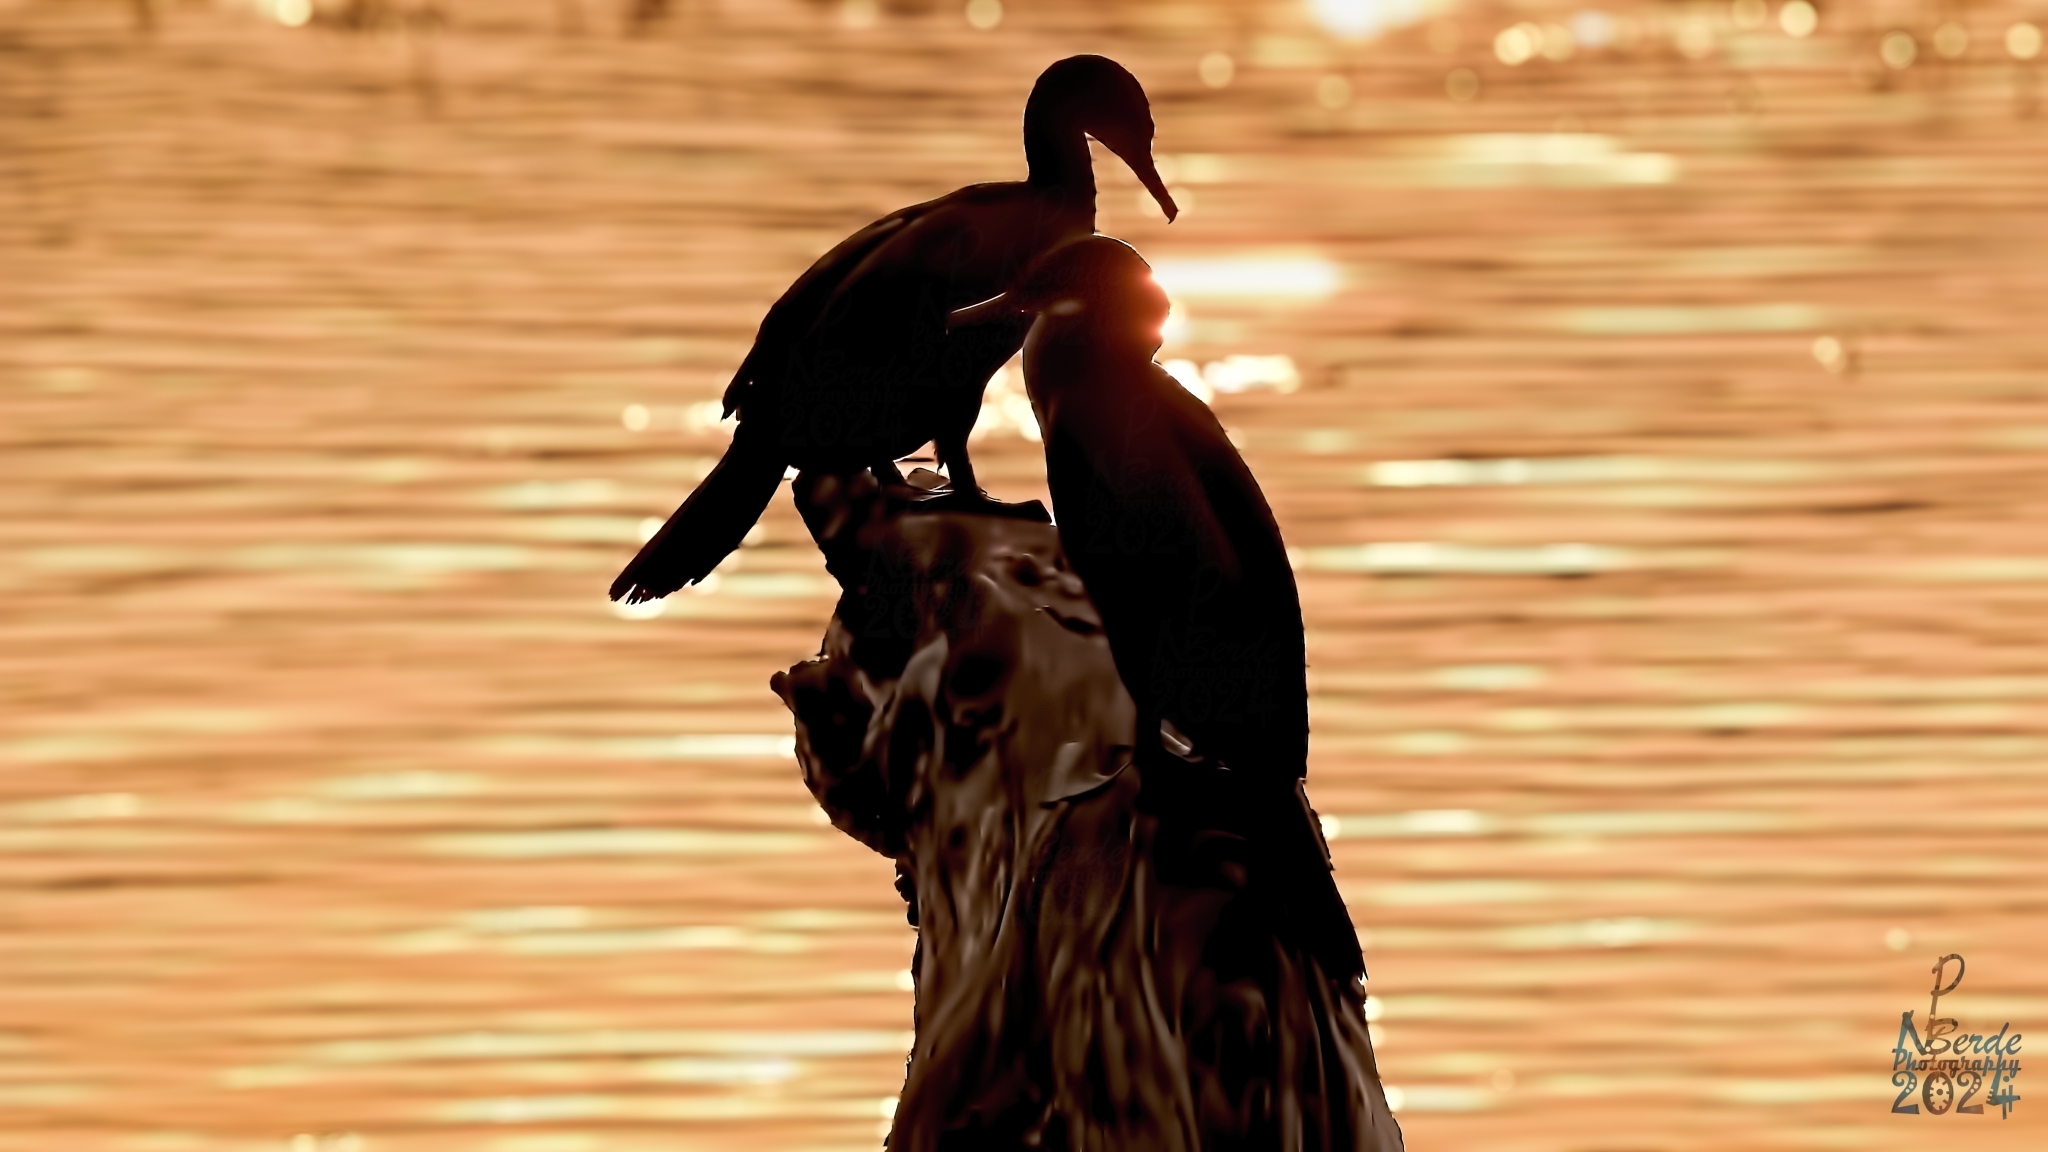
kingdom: Animalia
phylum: Chordata
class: Aves
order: Suliformes
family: Phalacrocoracidae
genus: Phalacrocorax
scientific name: Phalacrocorax fuscicollis
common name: Indian cormorant
